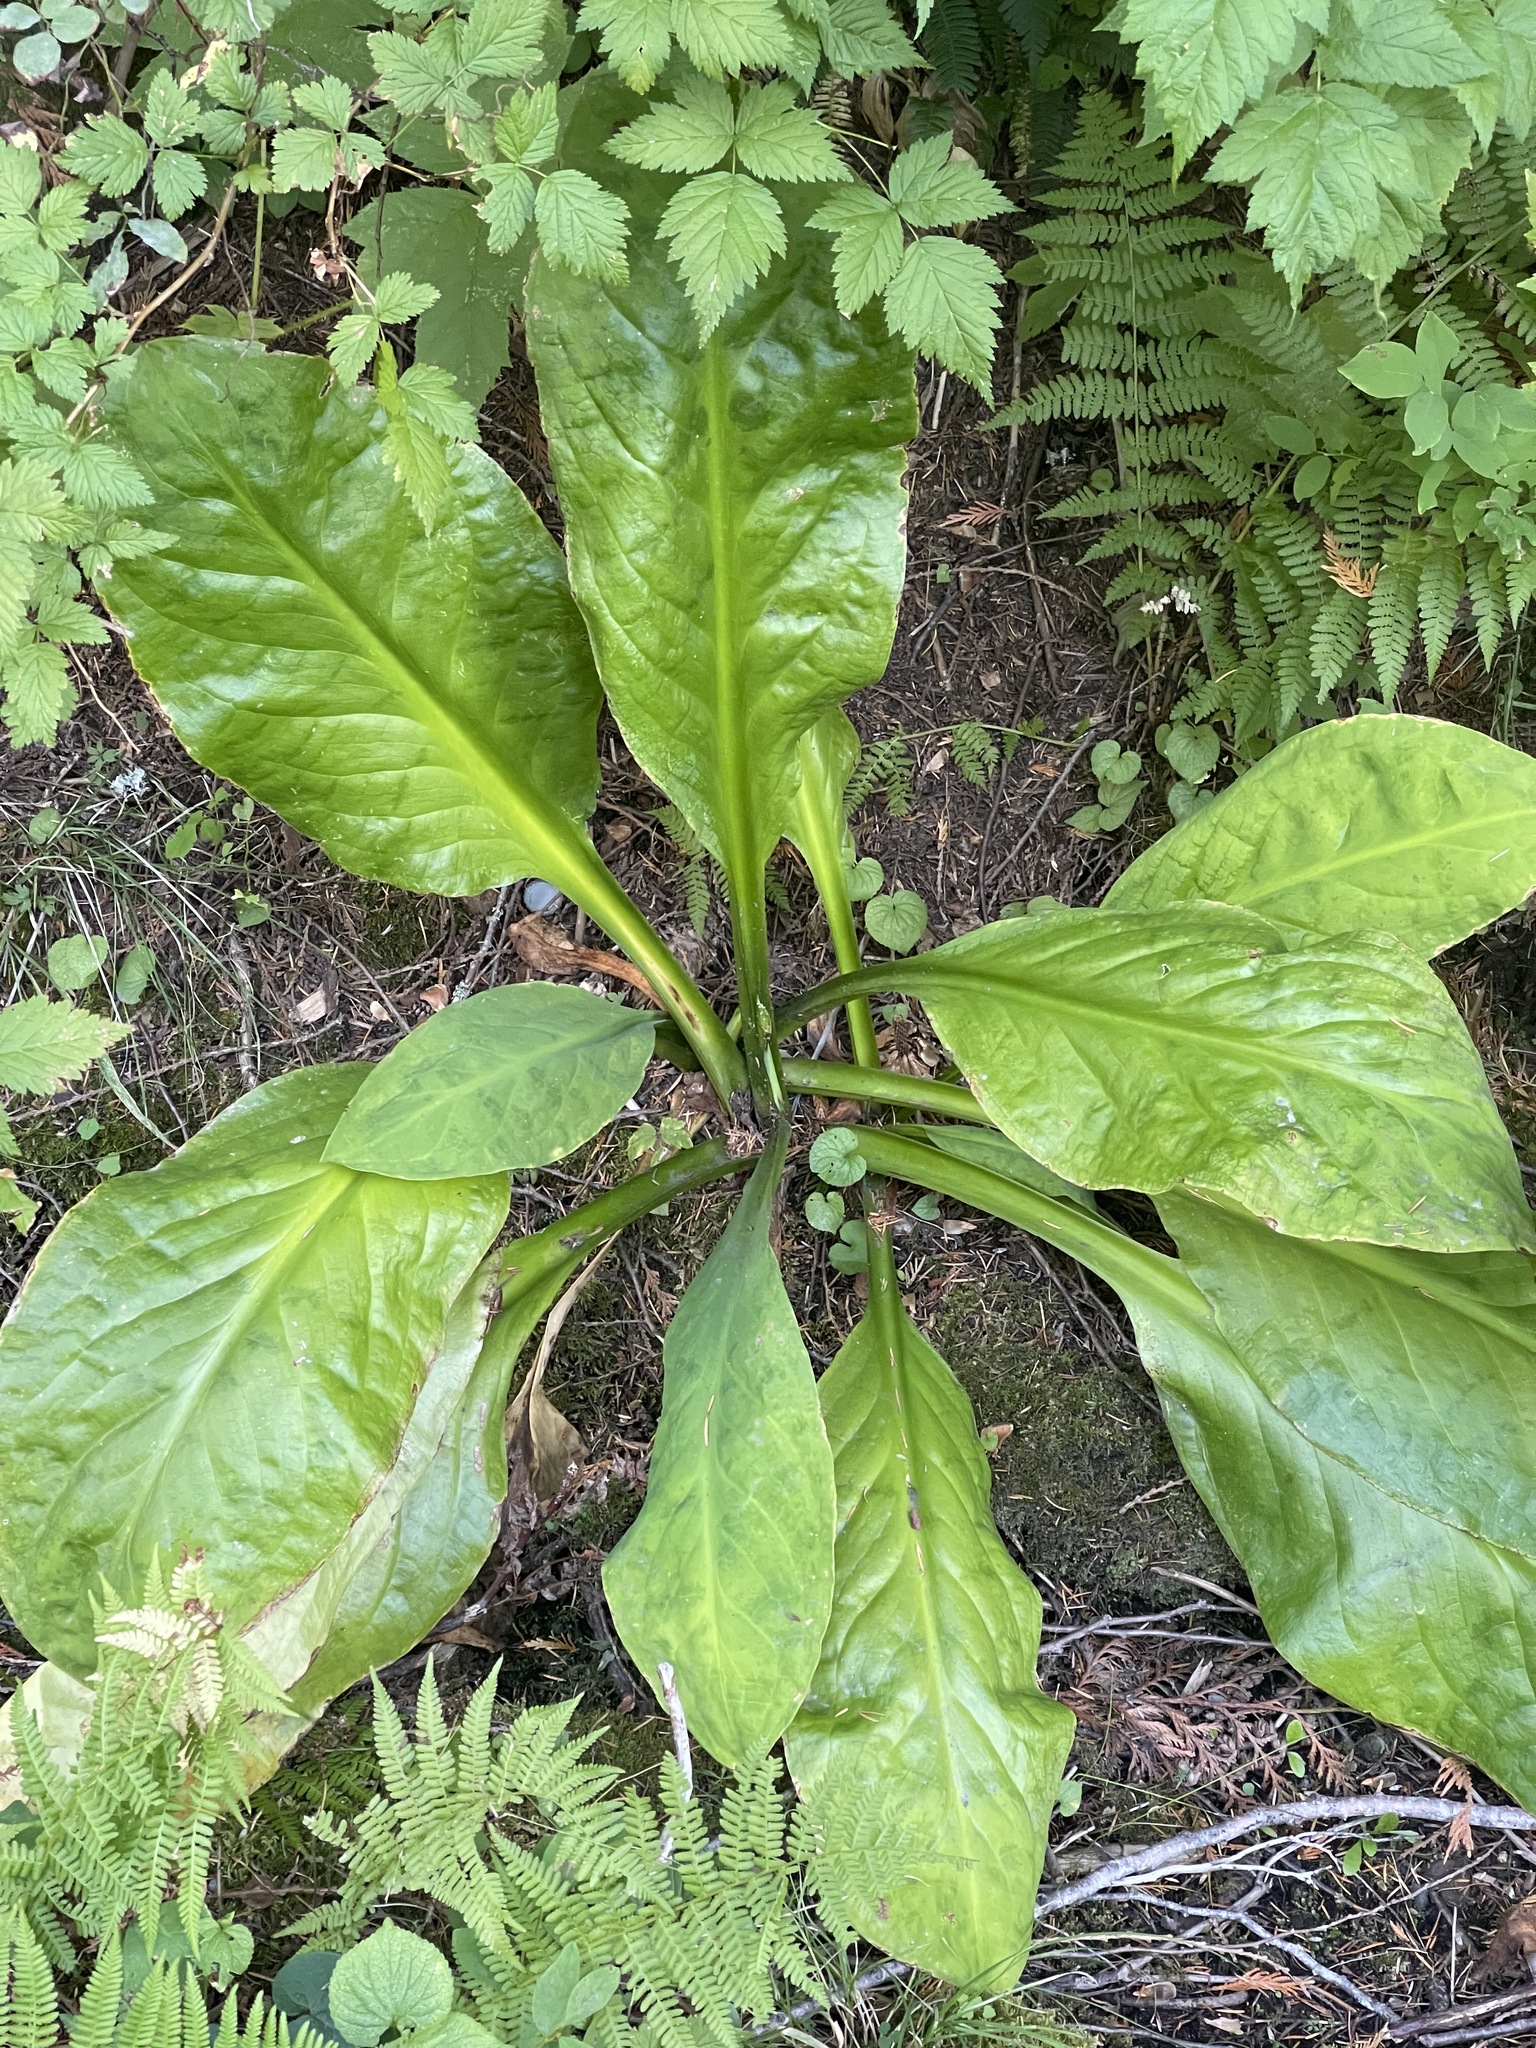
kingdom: Plantae
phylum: Tracheophyta
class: Liliopsida
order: Alismatales
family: Araceae
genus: Lysichiton
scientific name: Lysichiton americanus
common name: American skunk cabbage
